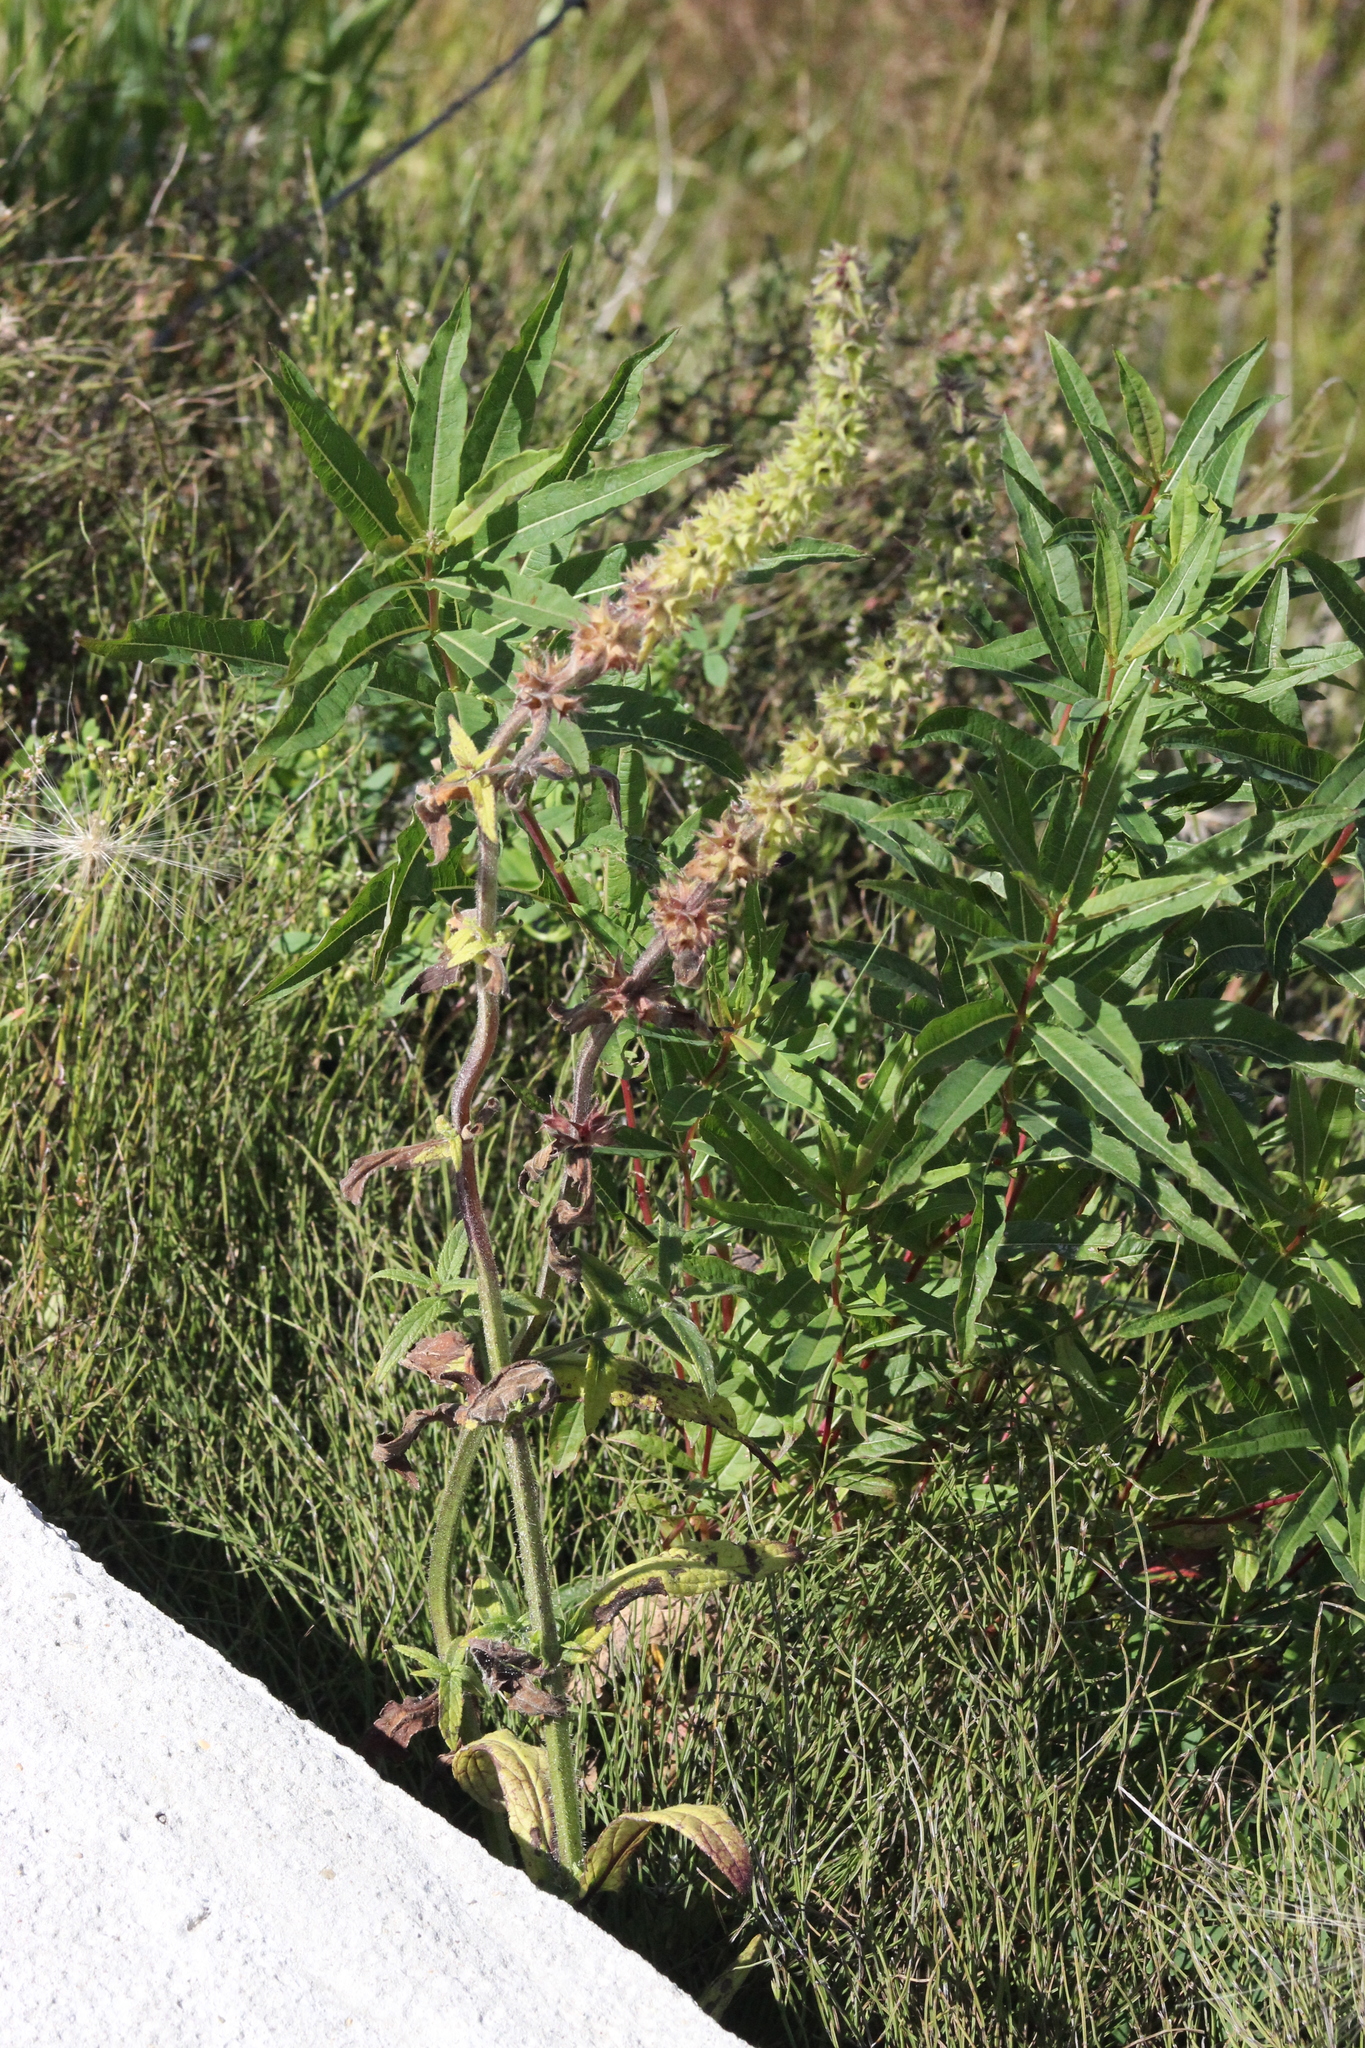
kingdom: Plantae
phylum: Tracheophyta
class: Magnoliopsida
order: Lamiales
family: Lamiaceae
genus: Stachys
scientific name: Stachys palustris
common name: Marsh woundwort
